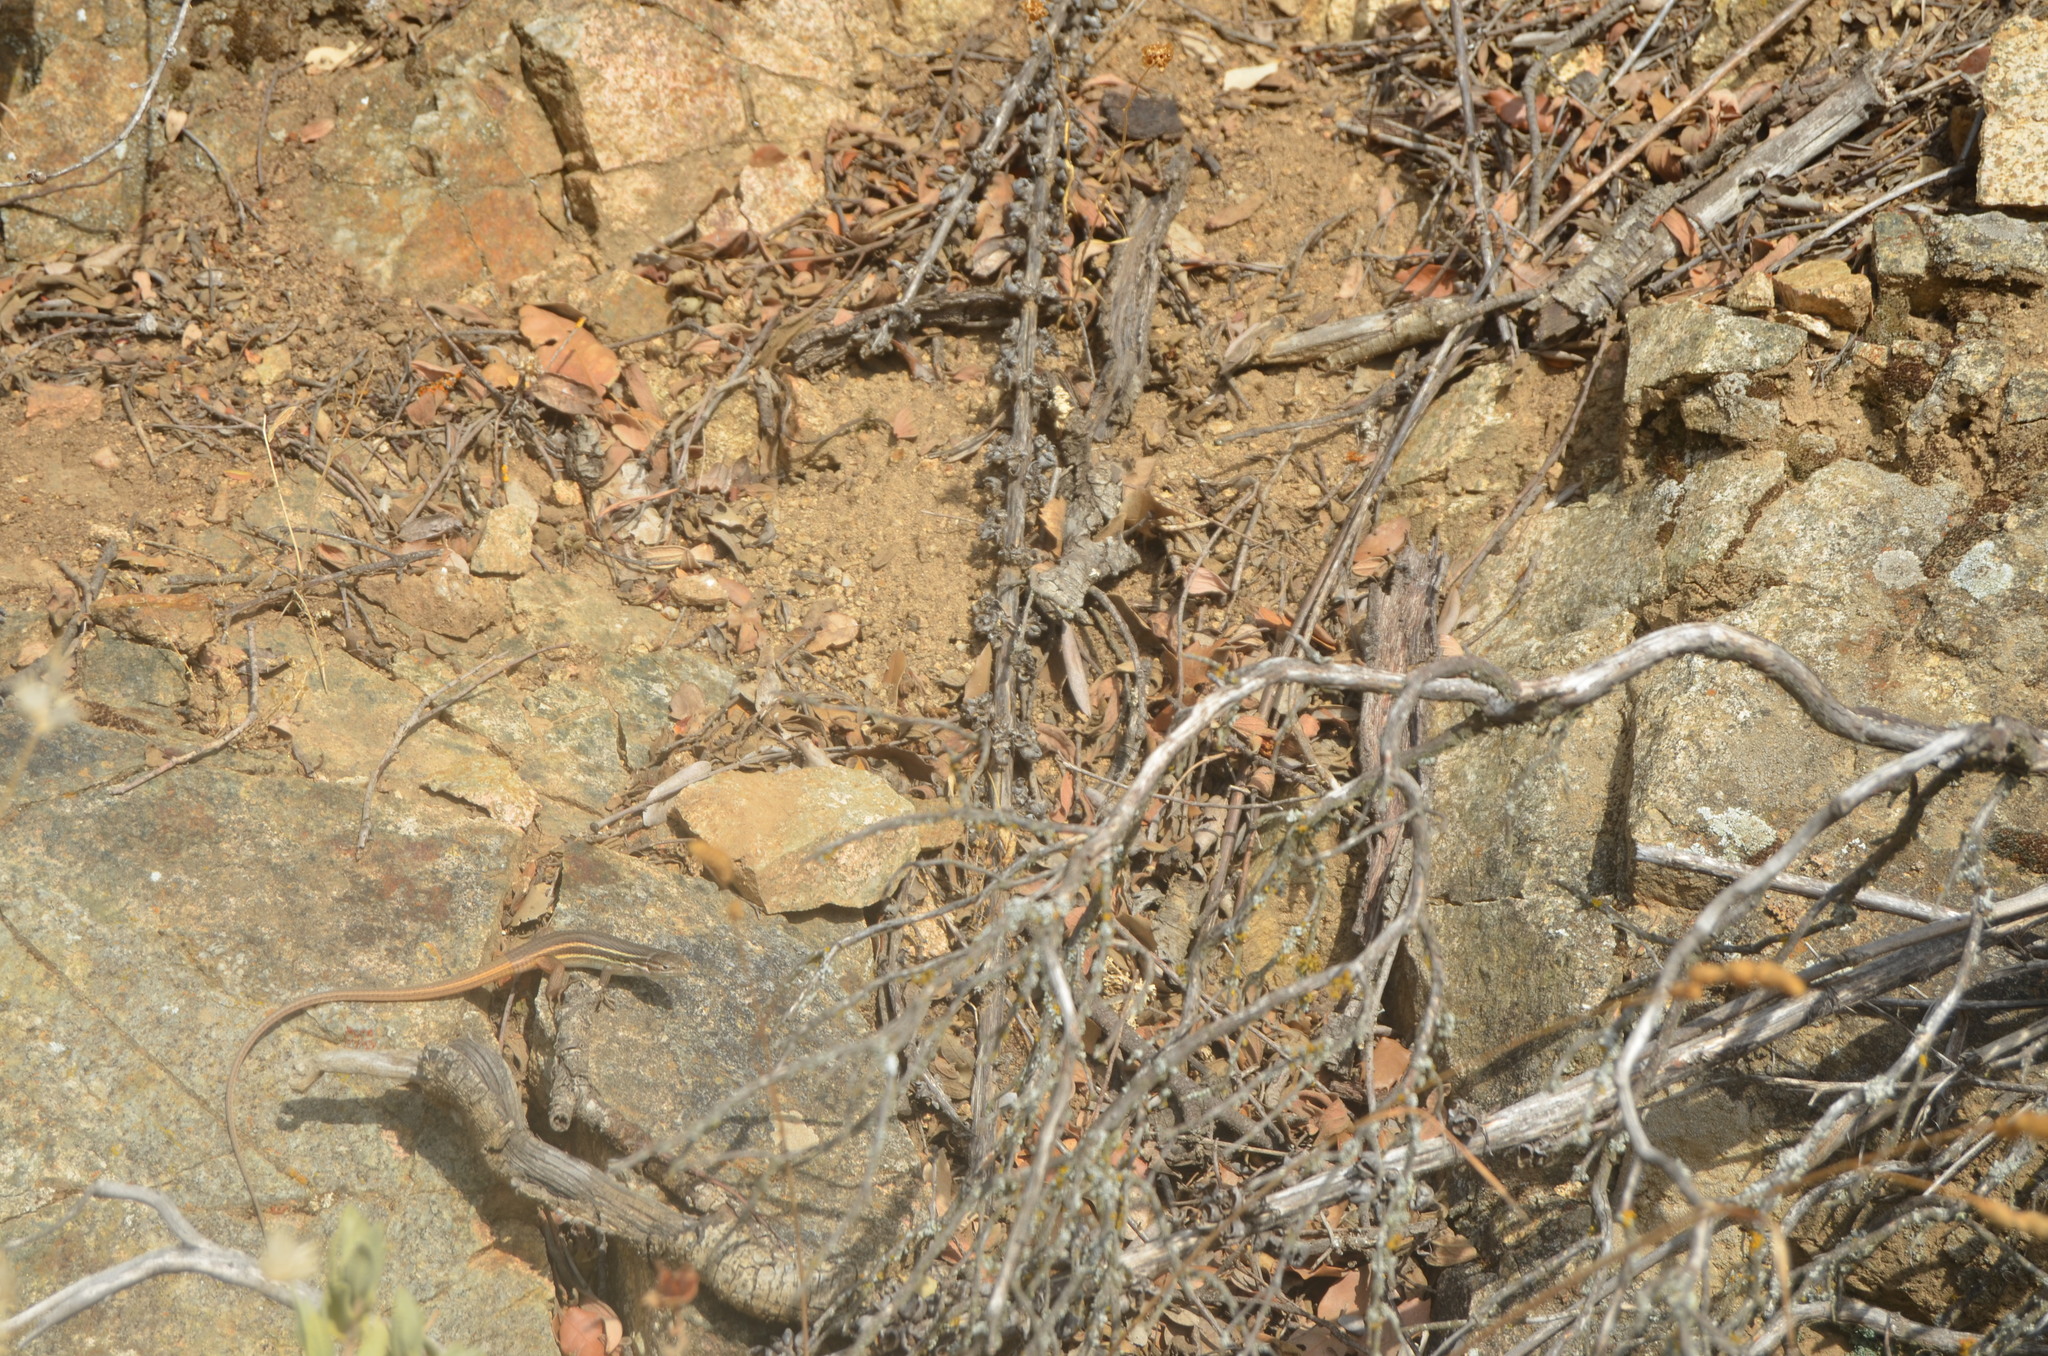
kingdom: Animalia
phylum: Chordata
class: Squamata
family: Lacertidae
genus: Psammodromus
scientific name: Psammodromus algirus
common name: Algerian psammodromus
